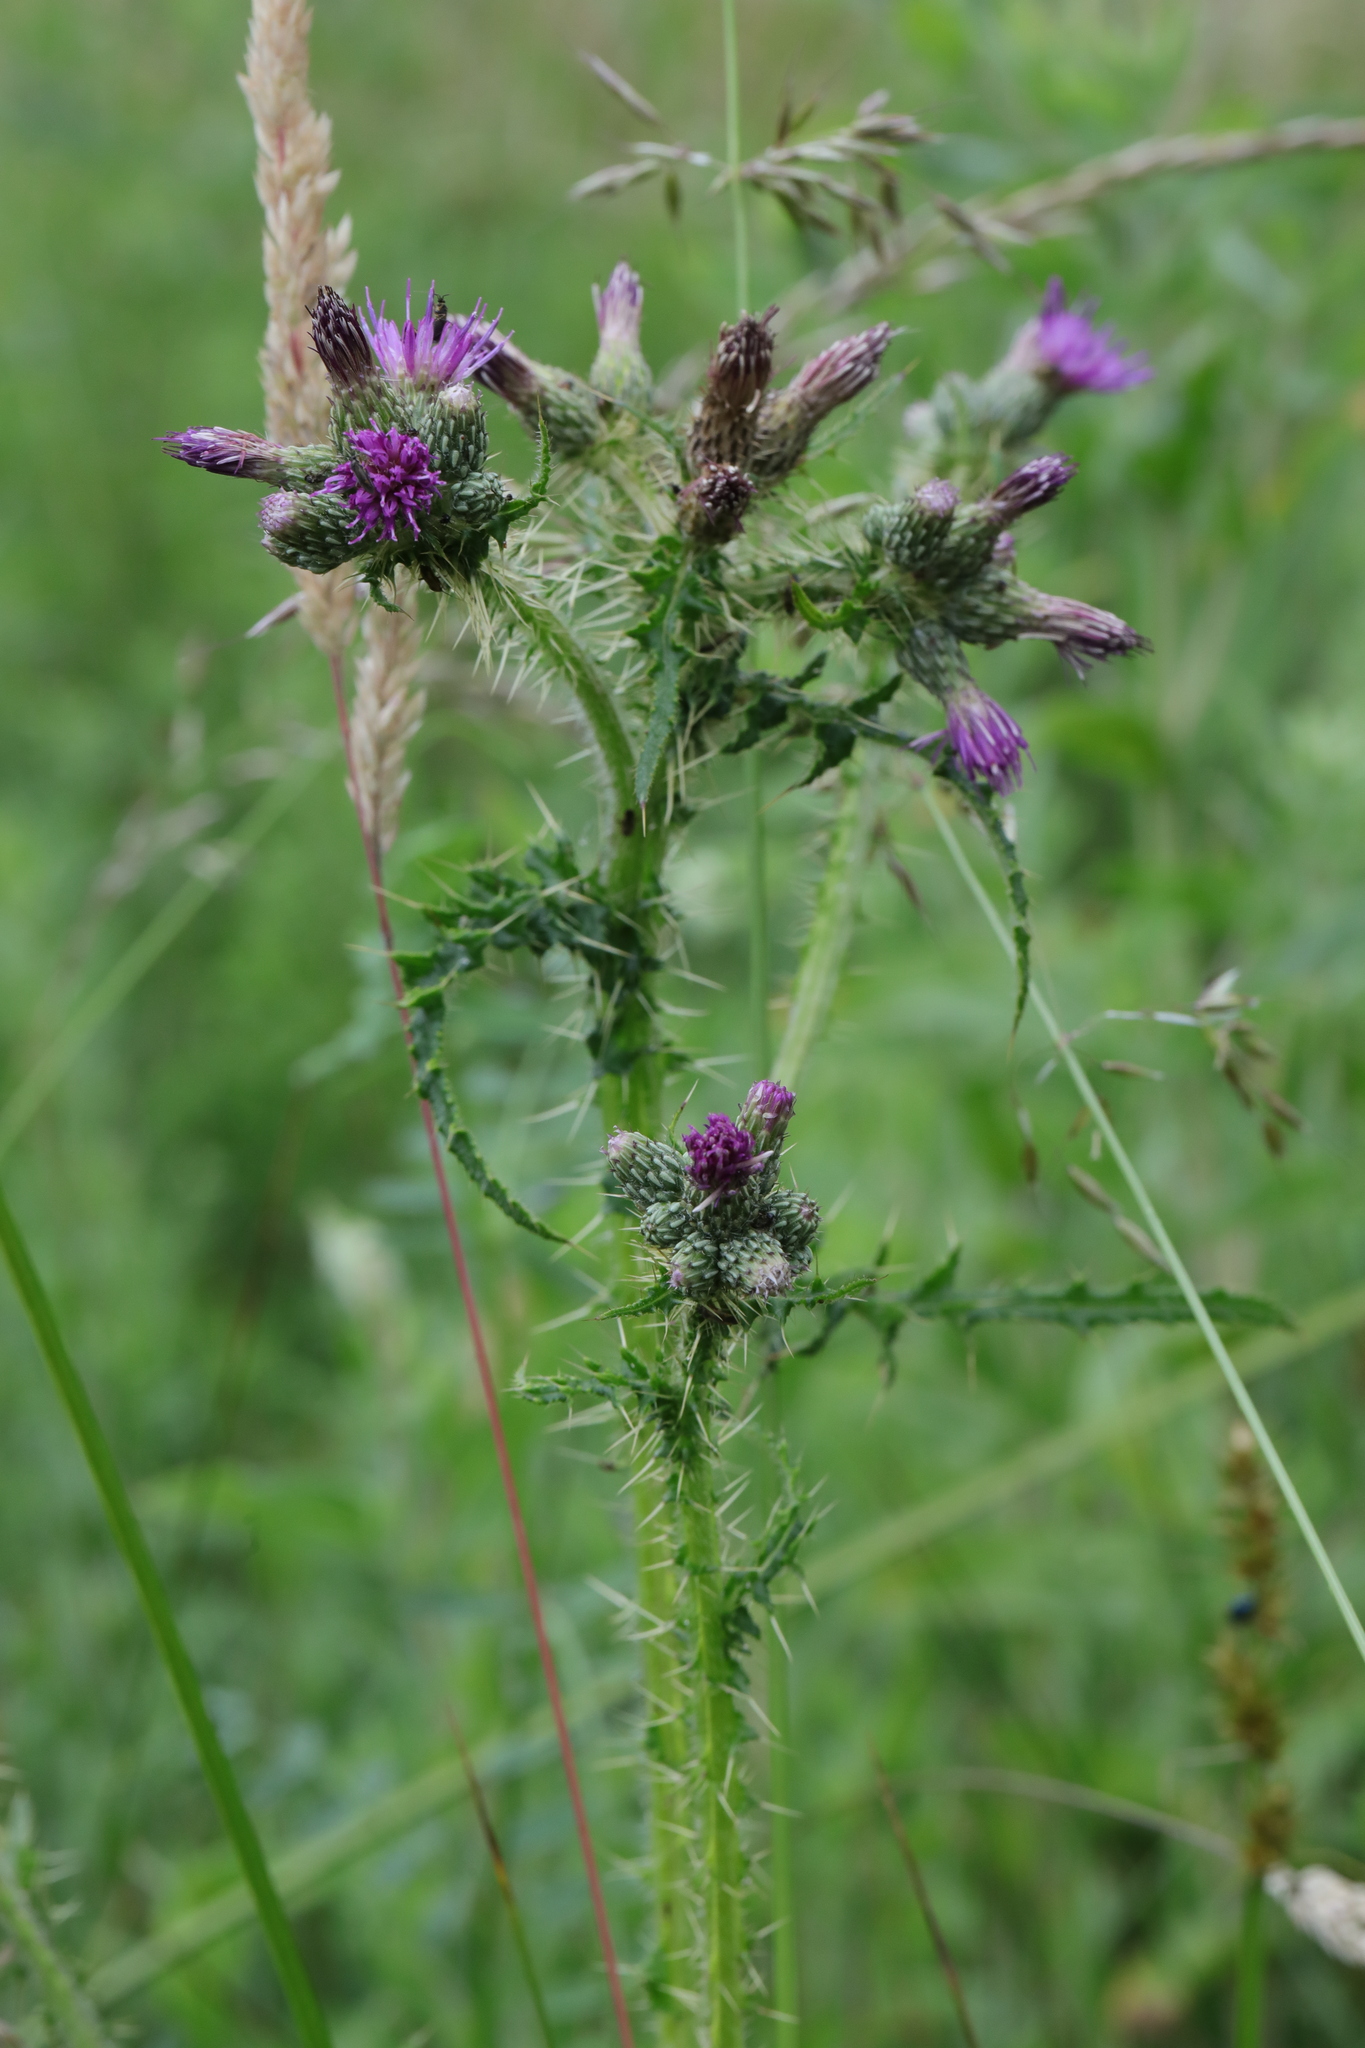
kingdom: Plantae
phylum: Tracheophyta
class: Magnoliopsida
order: Asterales
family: Asteraceae
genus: Cirsium
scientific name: Cirsium palustre
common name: Marsh thistle
